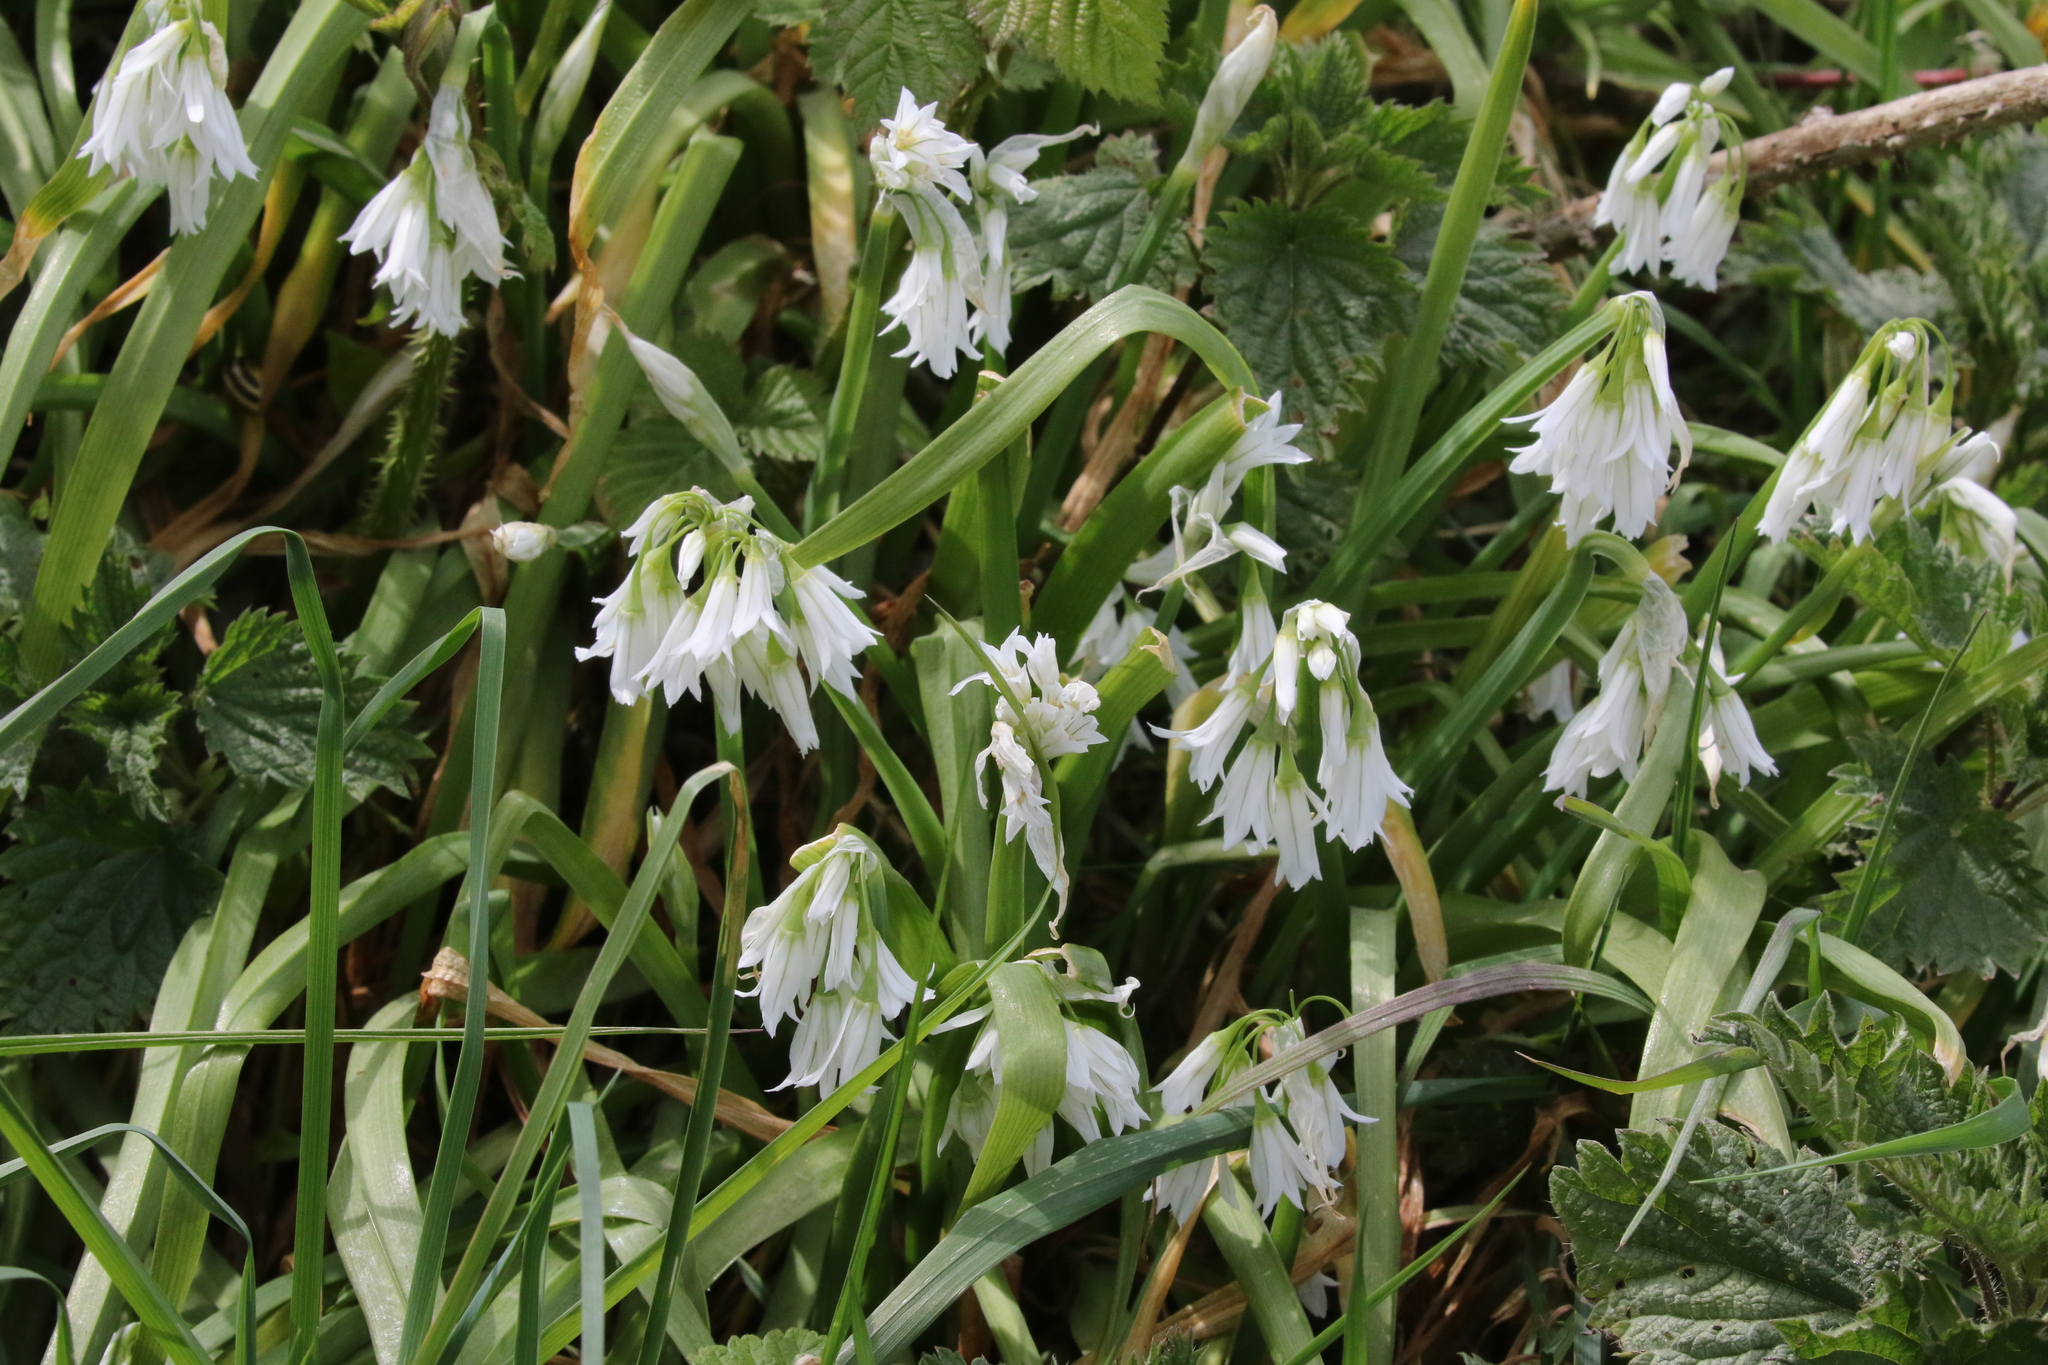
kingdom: Plantae
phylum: Tracheophyta
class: Liliopsida
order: Asparagales
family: Amaryllidaceae
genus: Allium
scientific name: Allium triquetrum
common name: Three-cornered garlic
